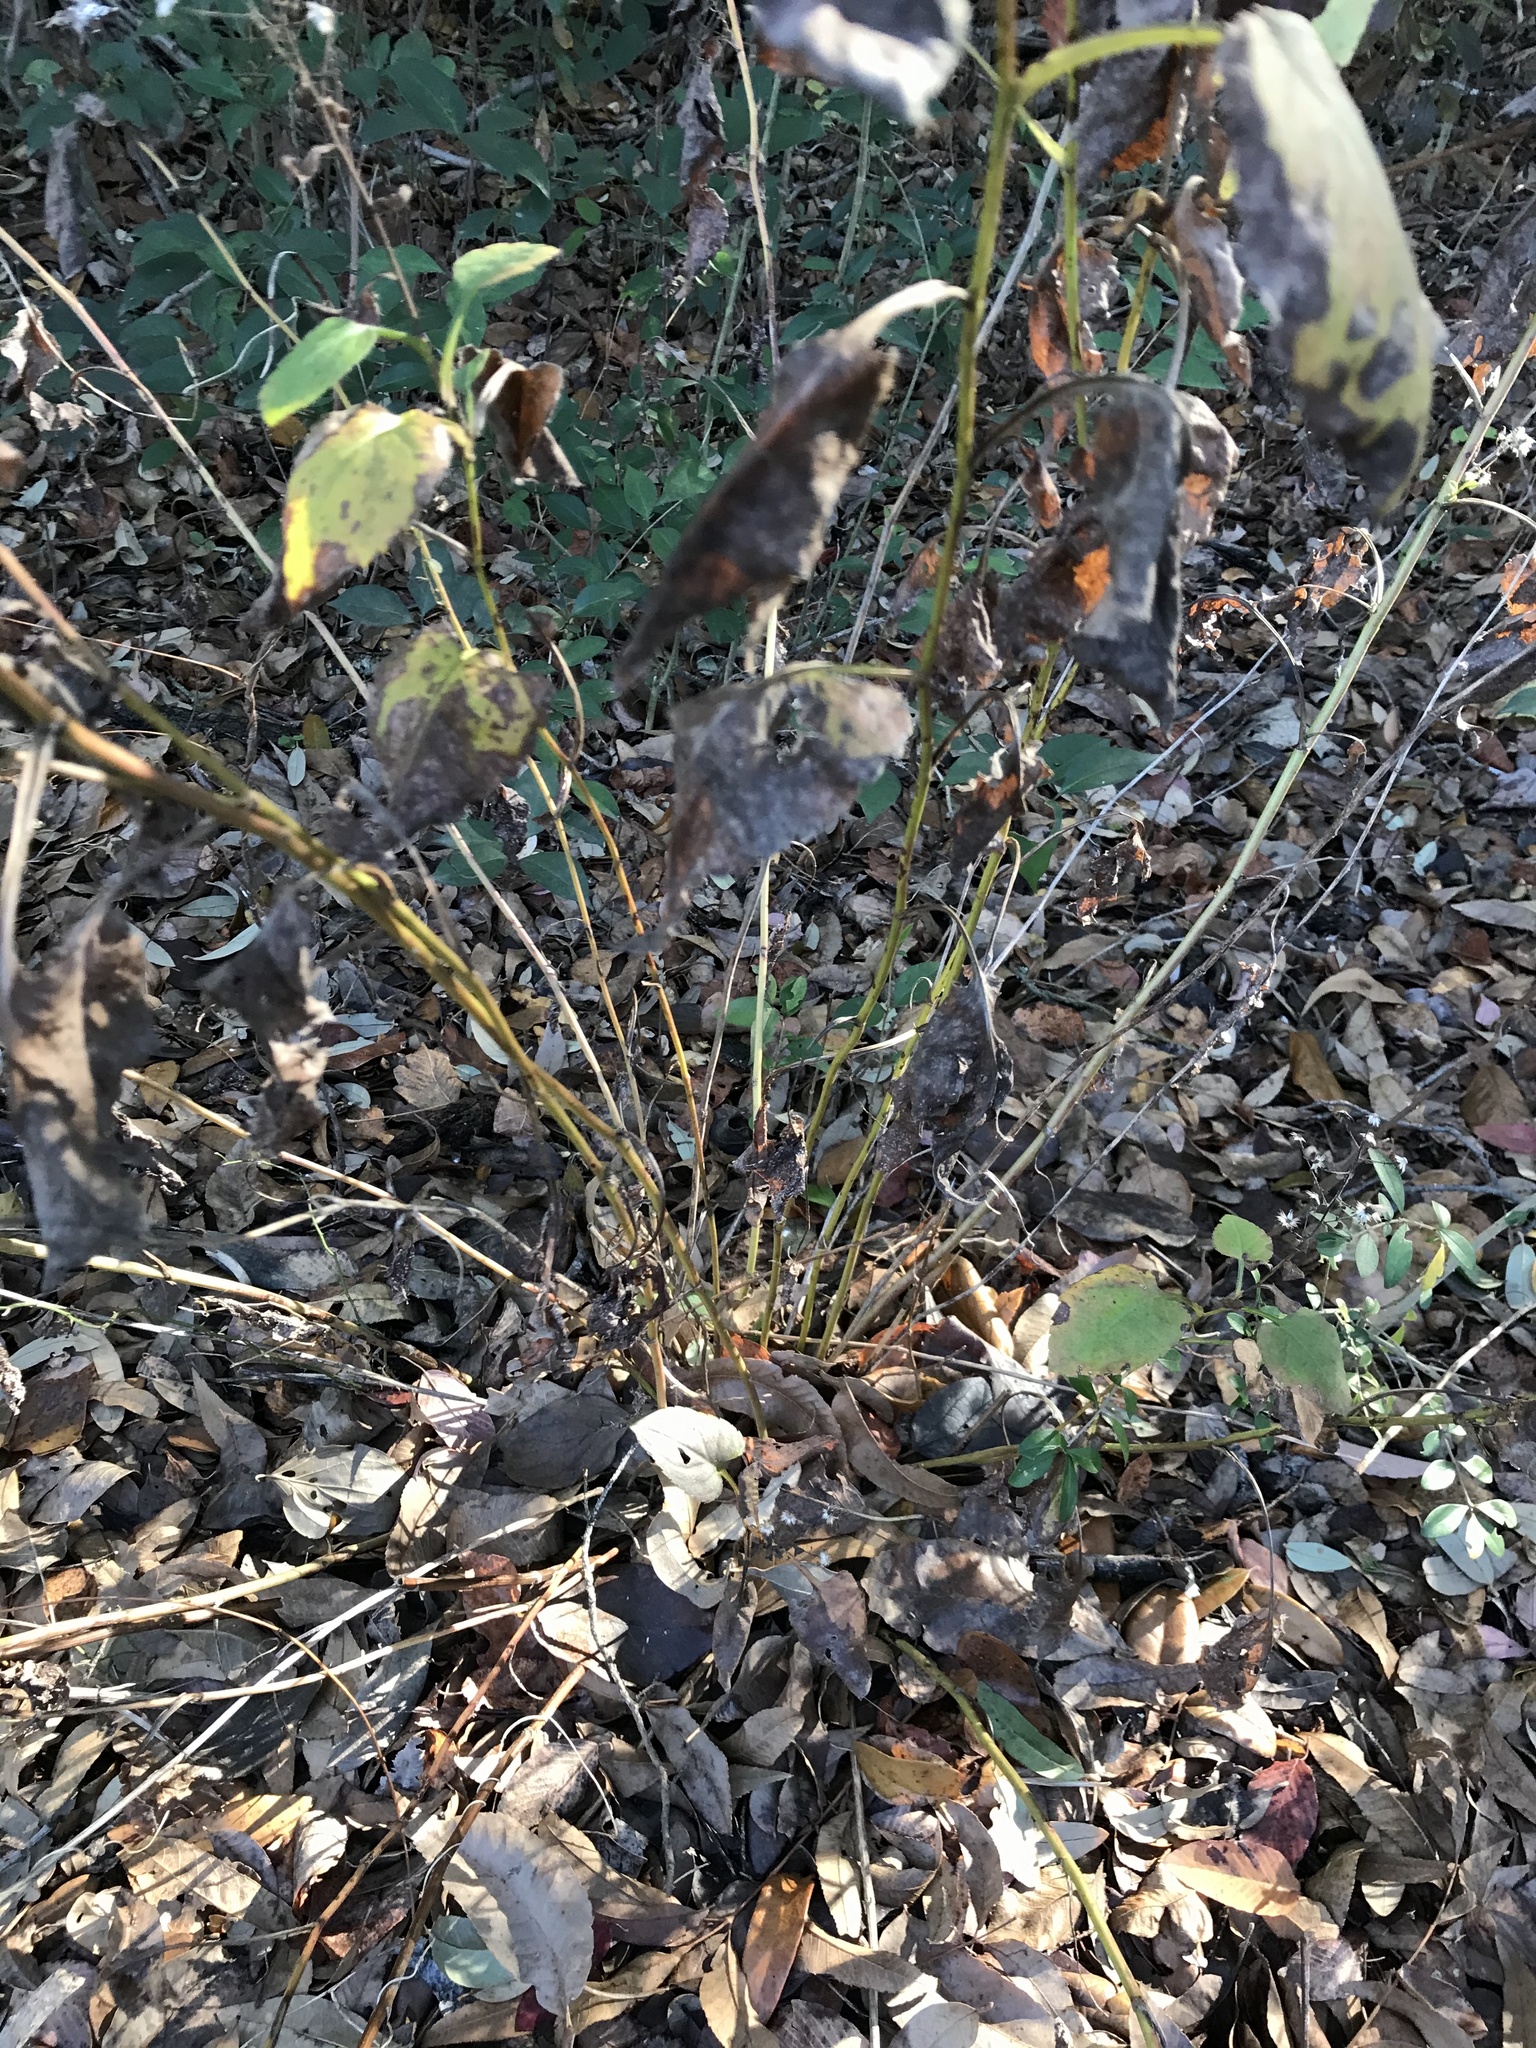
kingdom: Plantae
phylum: Tracheophyta
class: Magnoliopsida
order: Asterales
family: Asteraceae
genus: Symphyotrichum
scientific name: Symphyotrichum drummondii
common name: Drummond's aster
